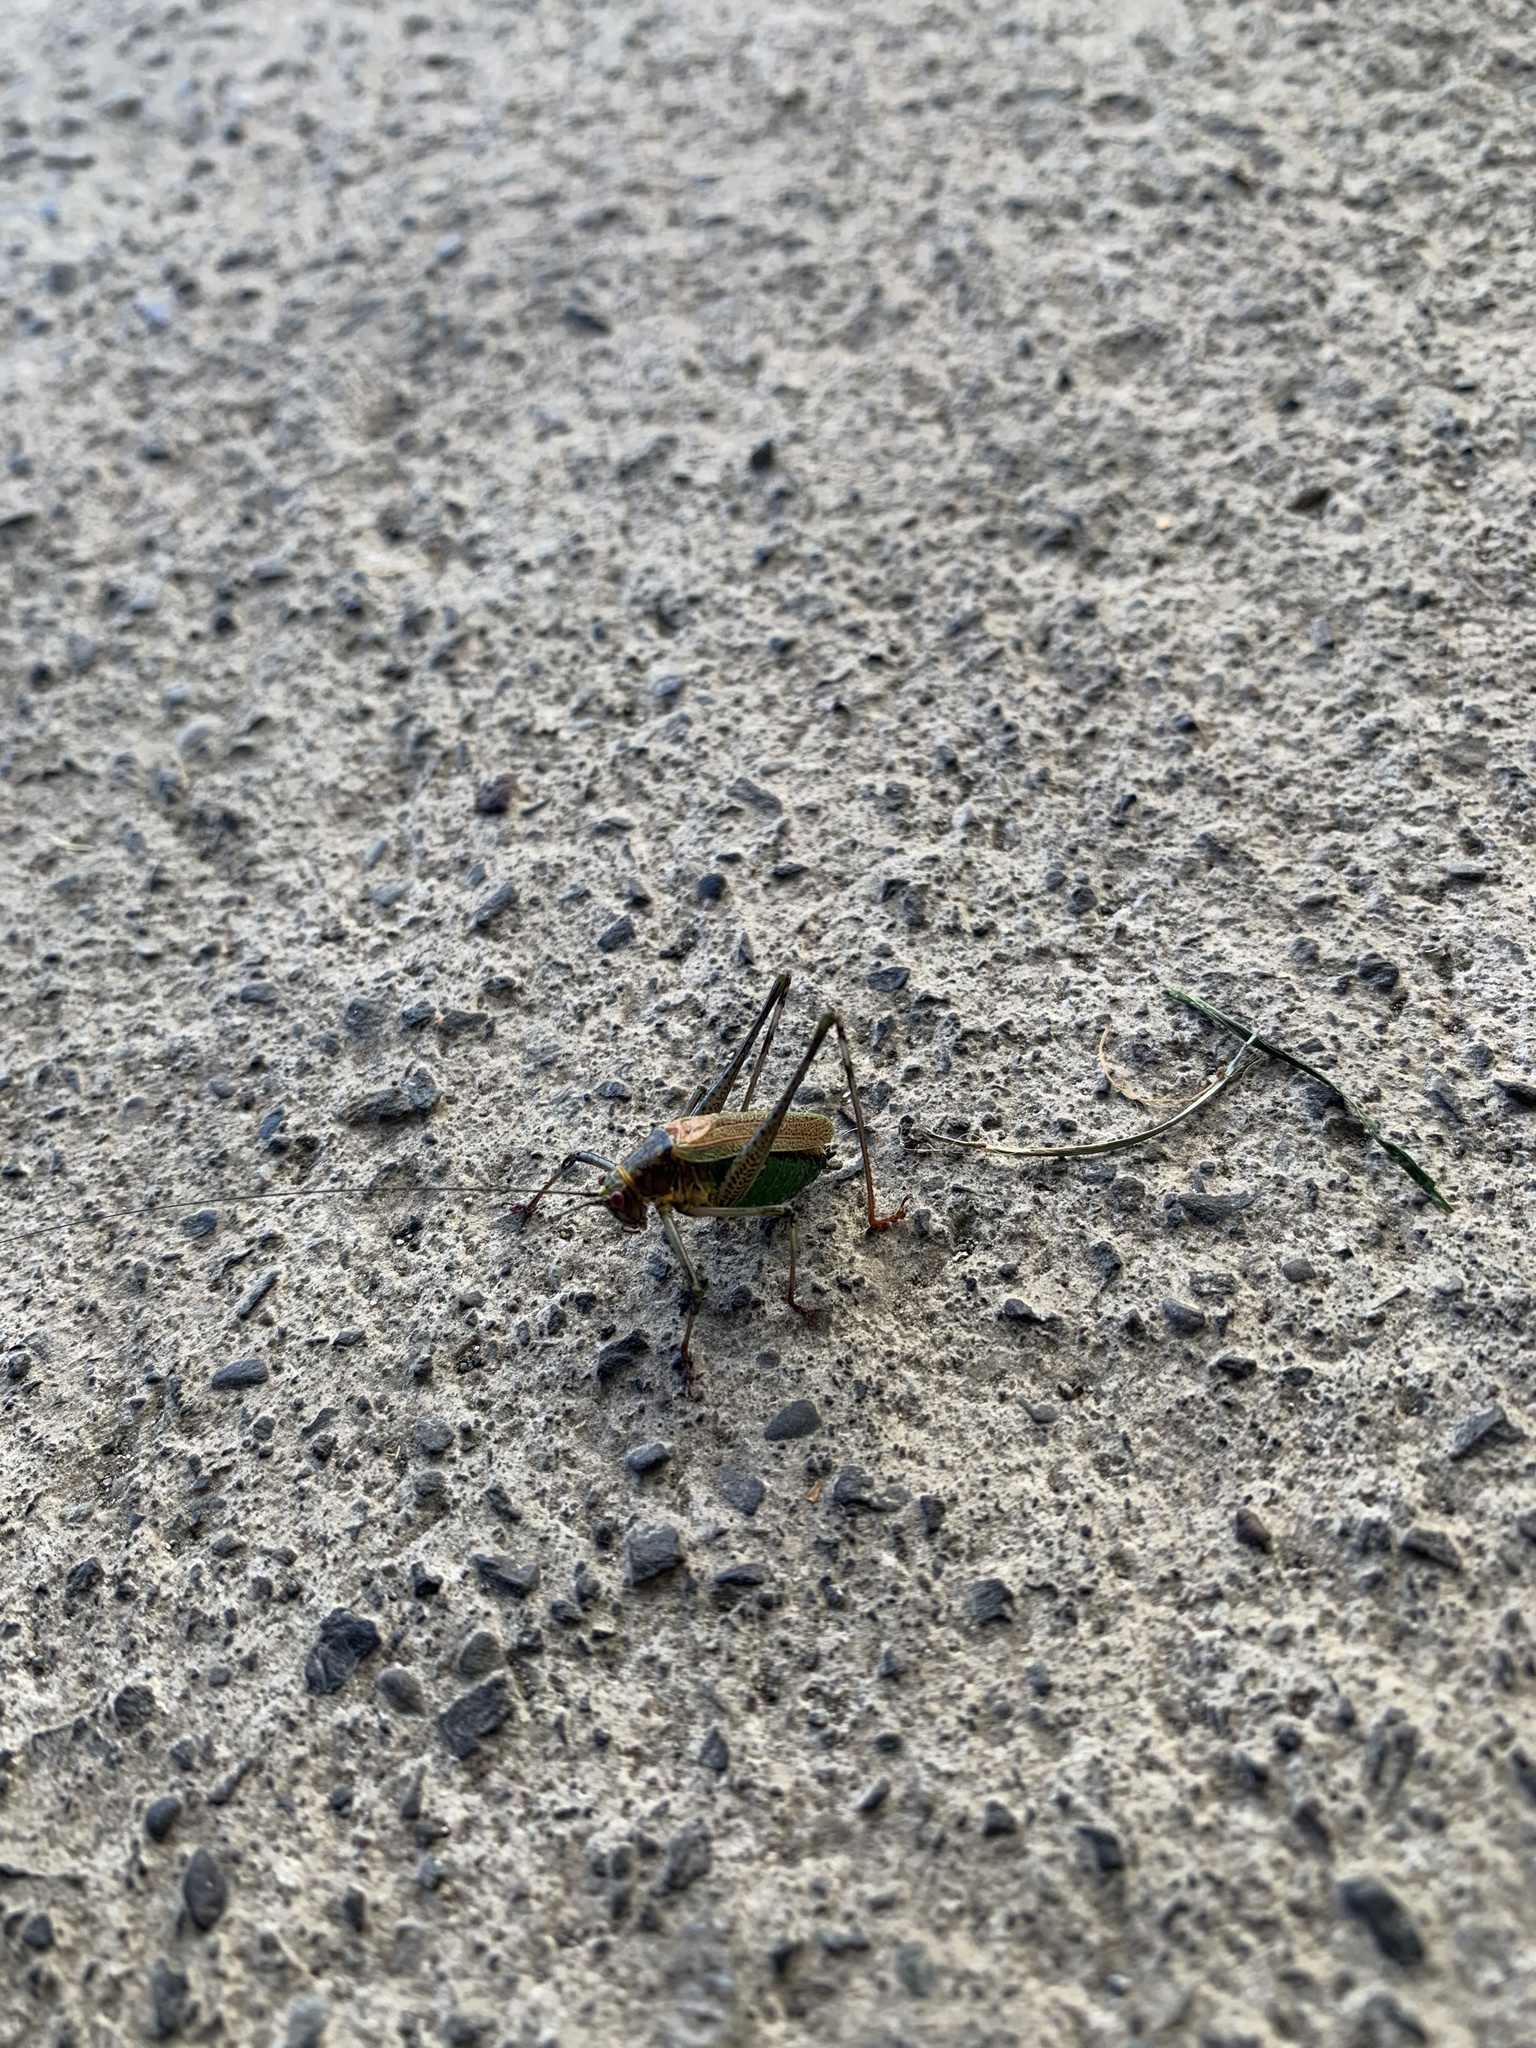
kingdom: Animalia
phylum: Arthropoda
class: Insecta
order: Orthoptera
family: Tettigoniidae
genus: Stenophyllia
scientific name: Stenophyllia modesta
